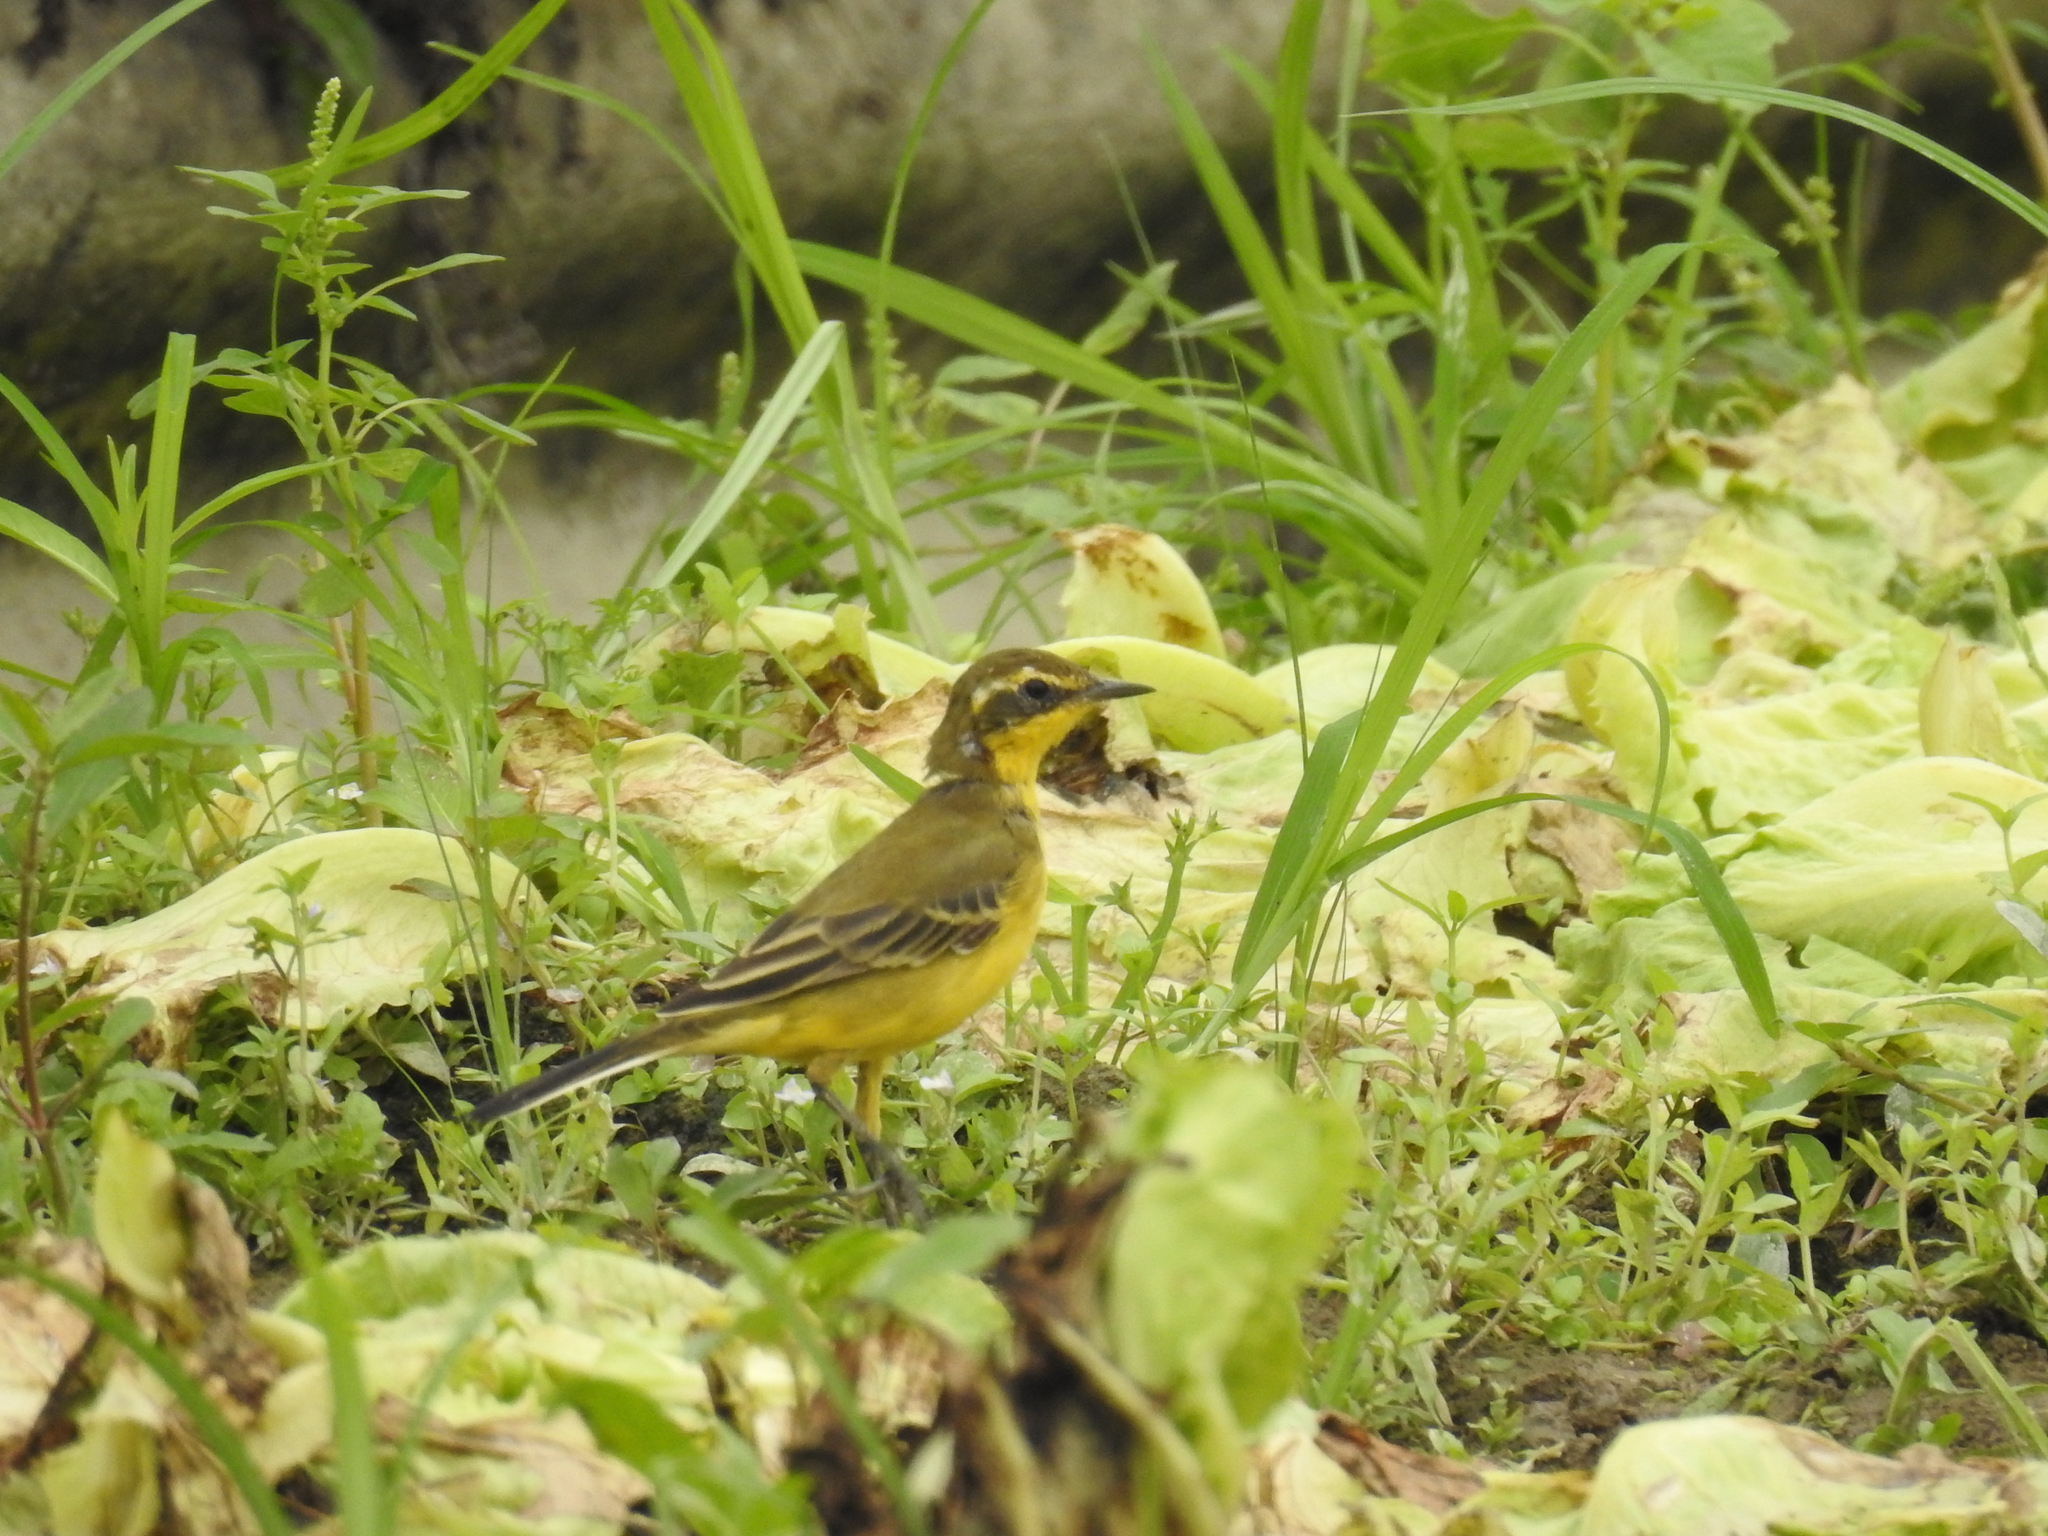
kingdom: Animalia
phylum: Chordata
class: Aves
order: Passeriformes
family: Motacillidae
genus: Motacilla
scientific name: Motacilla tschutschensis
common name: Eastern yellow wagtail
